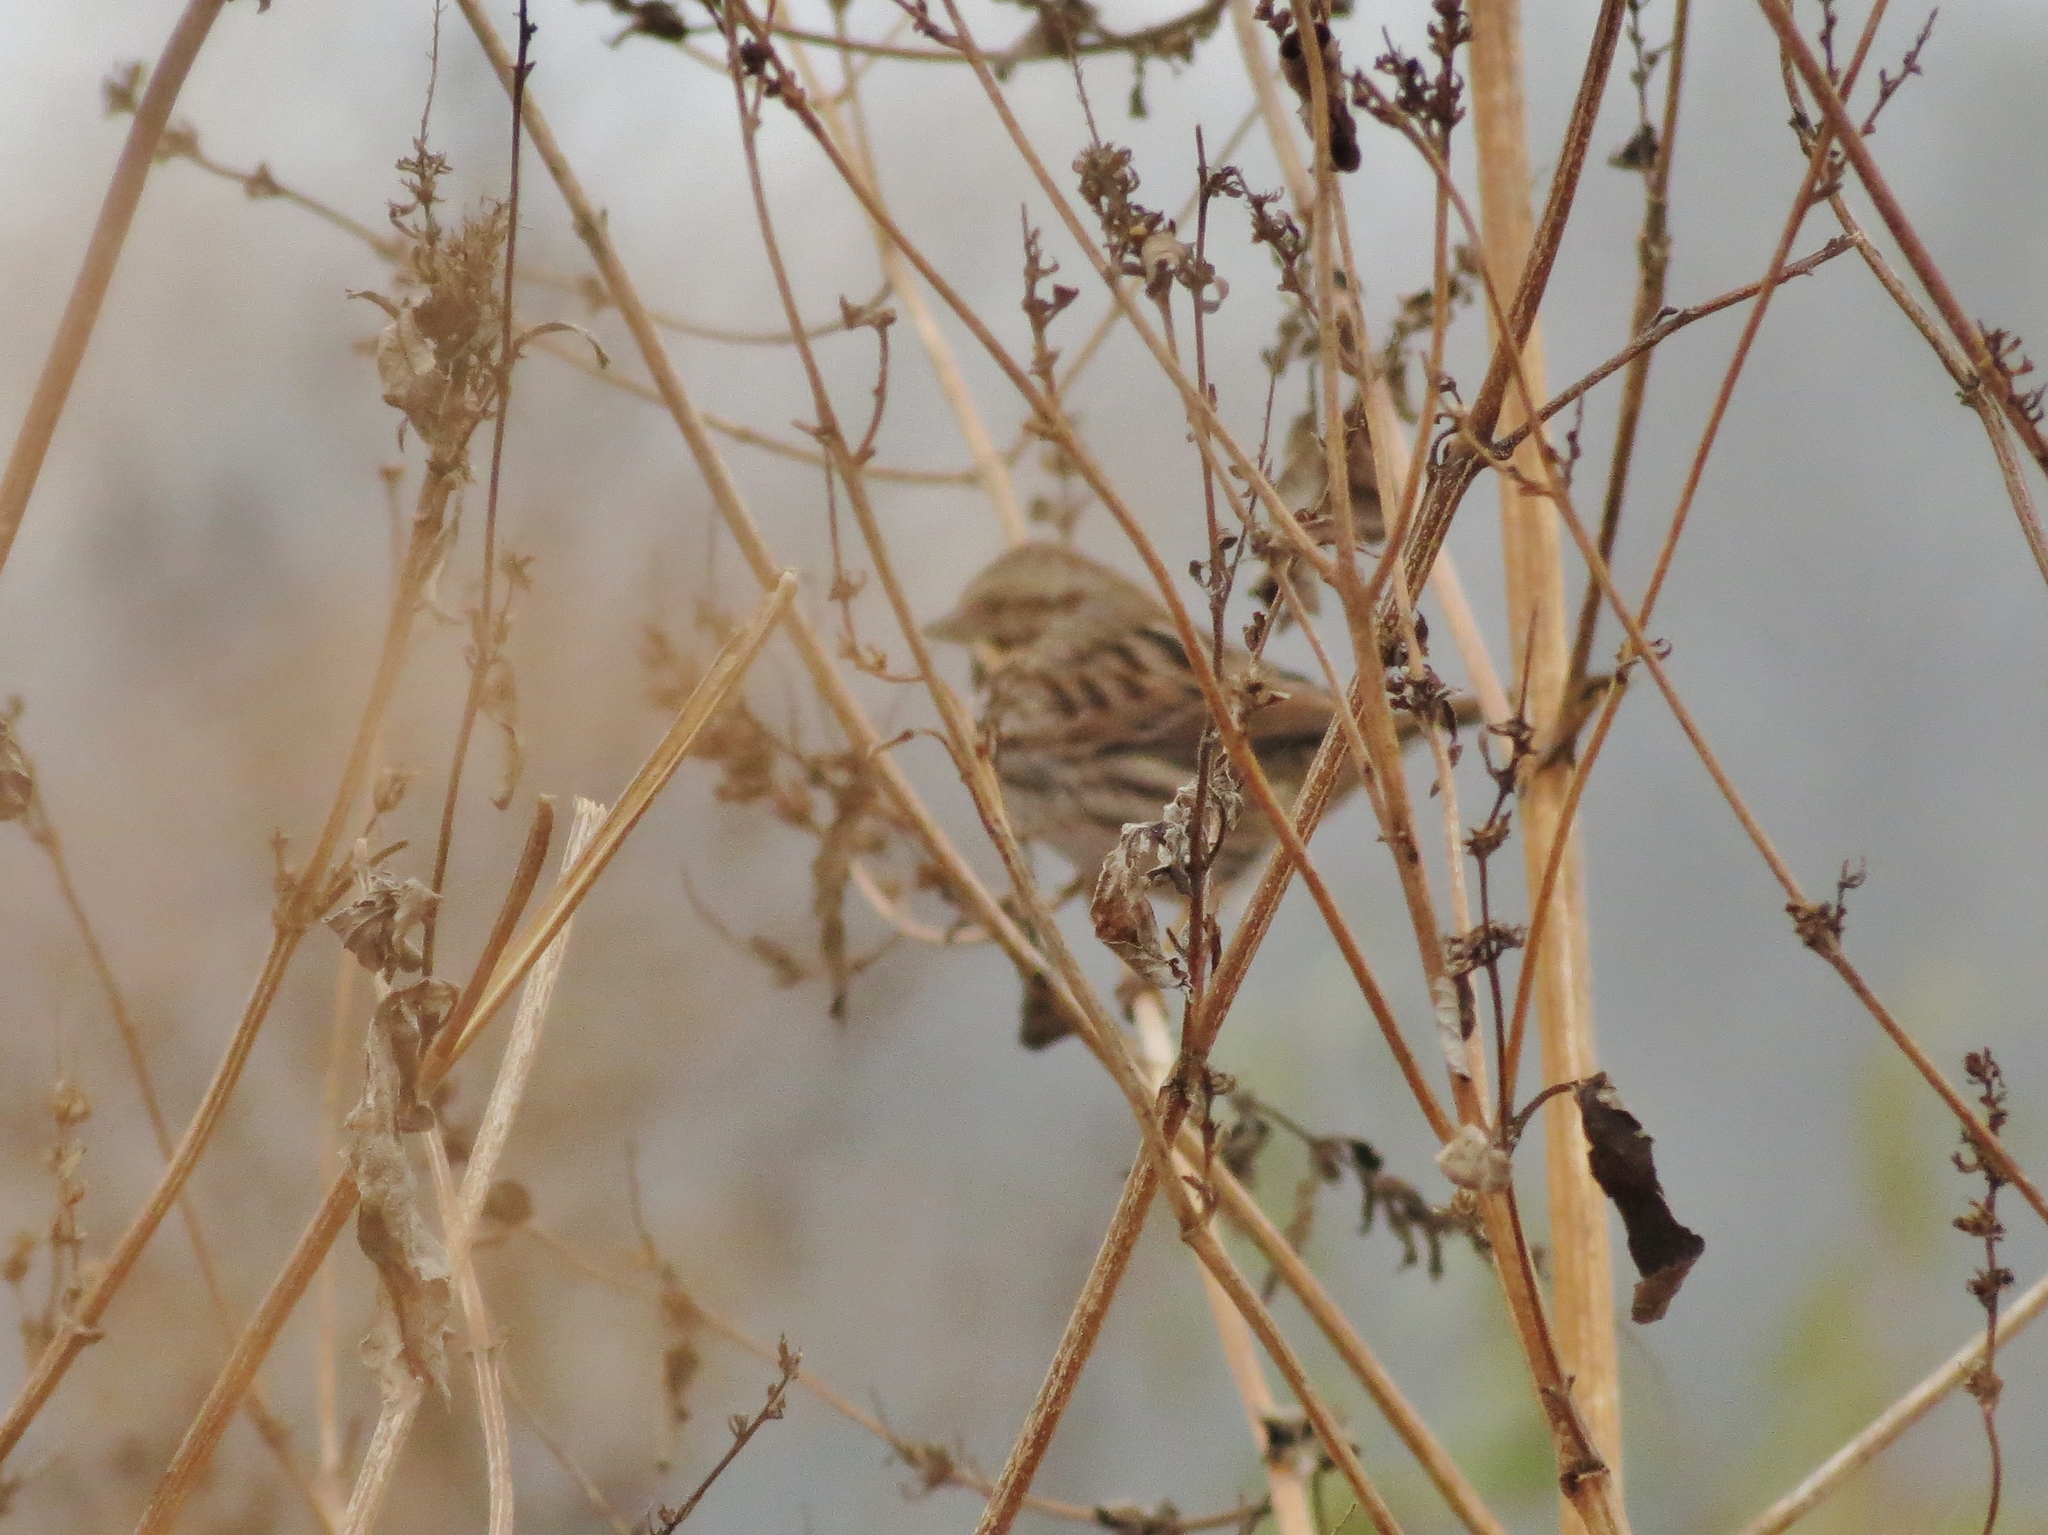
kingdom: Animalia
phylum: Chordata
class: Aves
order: Passeriformes
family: Passerellidae
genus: Melospiza
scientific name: Melospiza melodia
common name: Song sparrow
